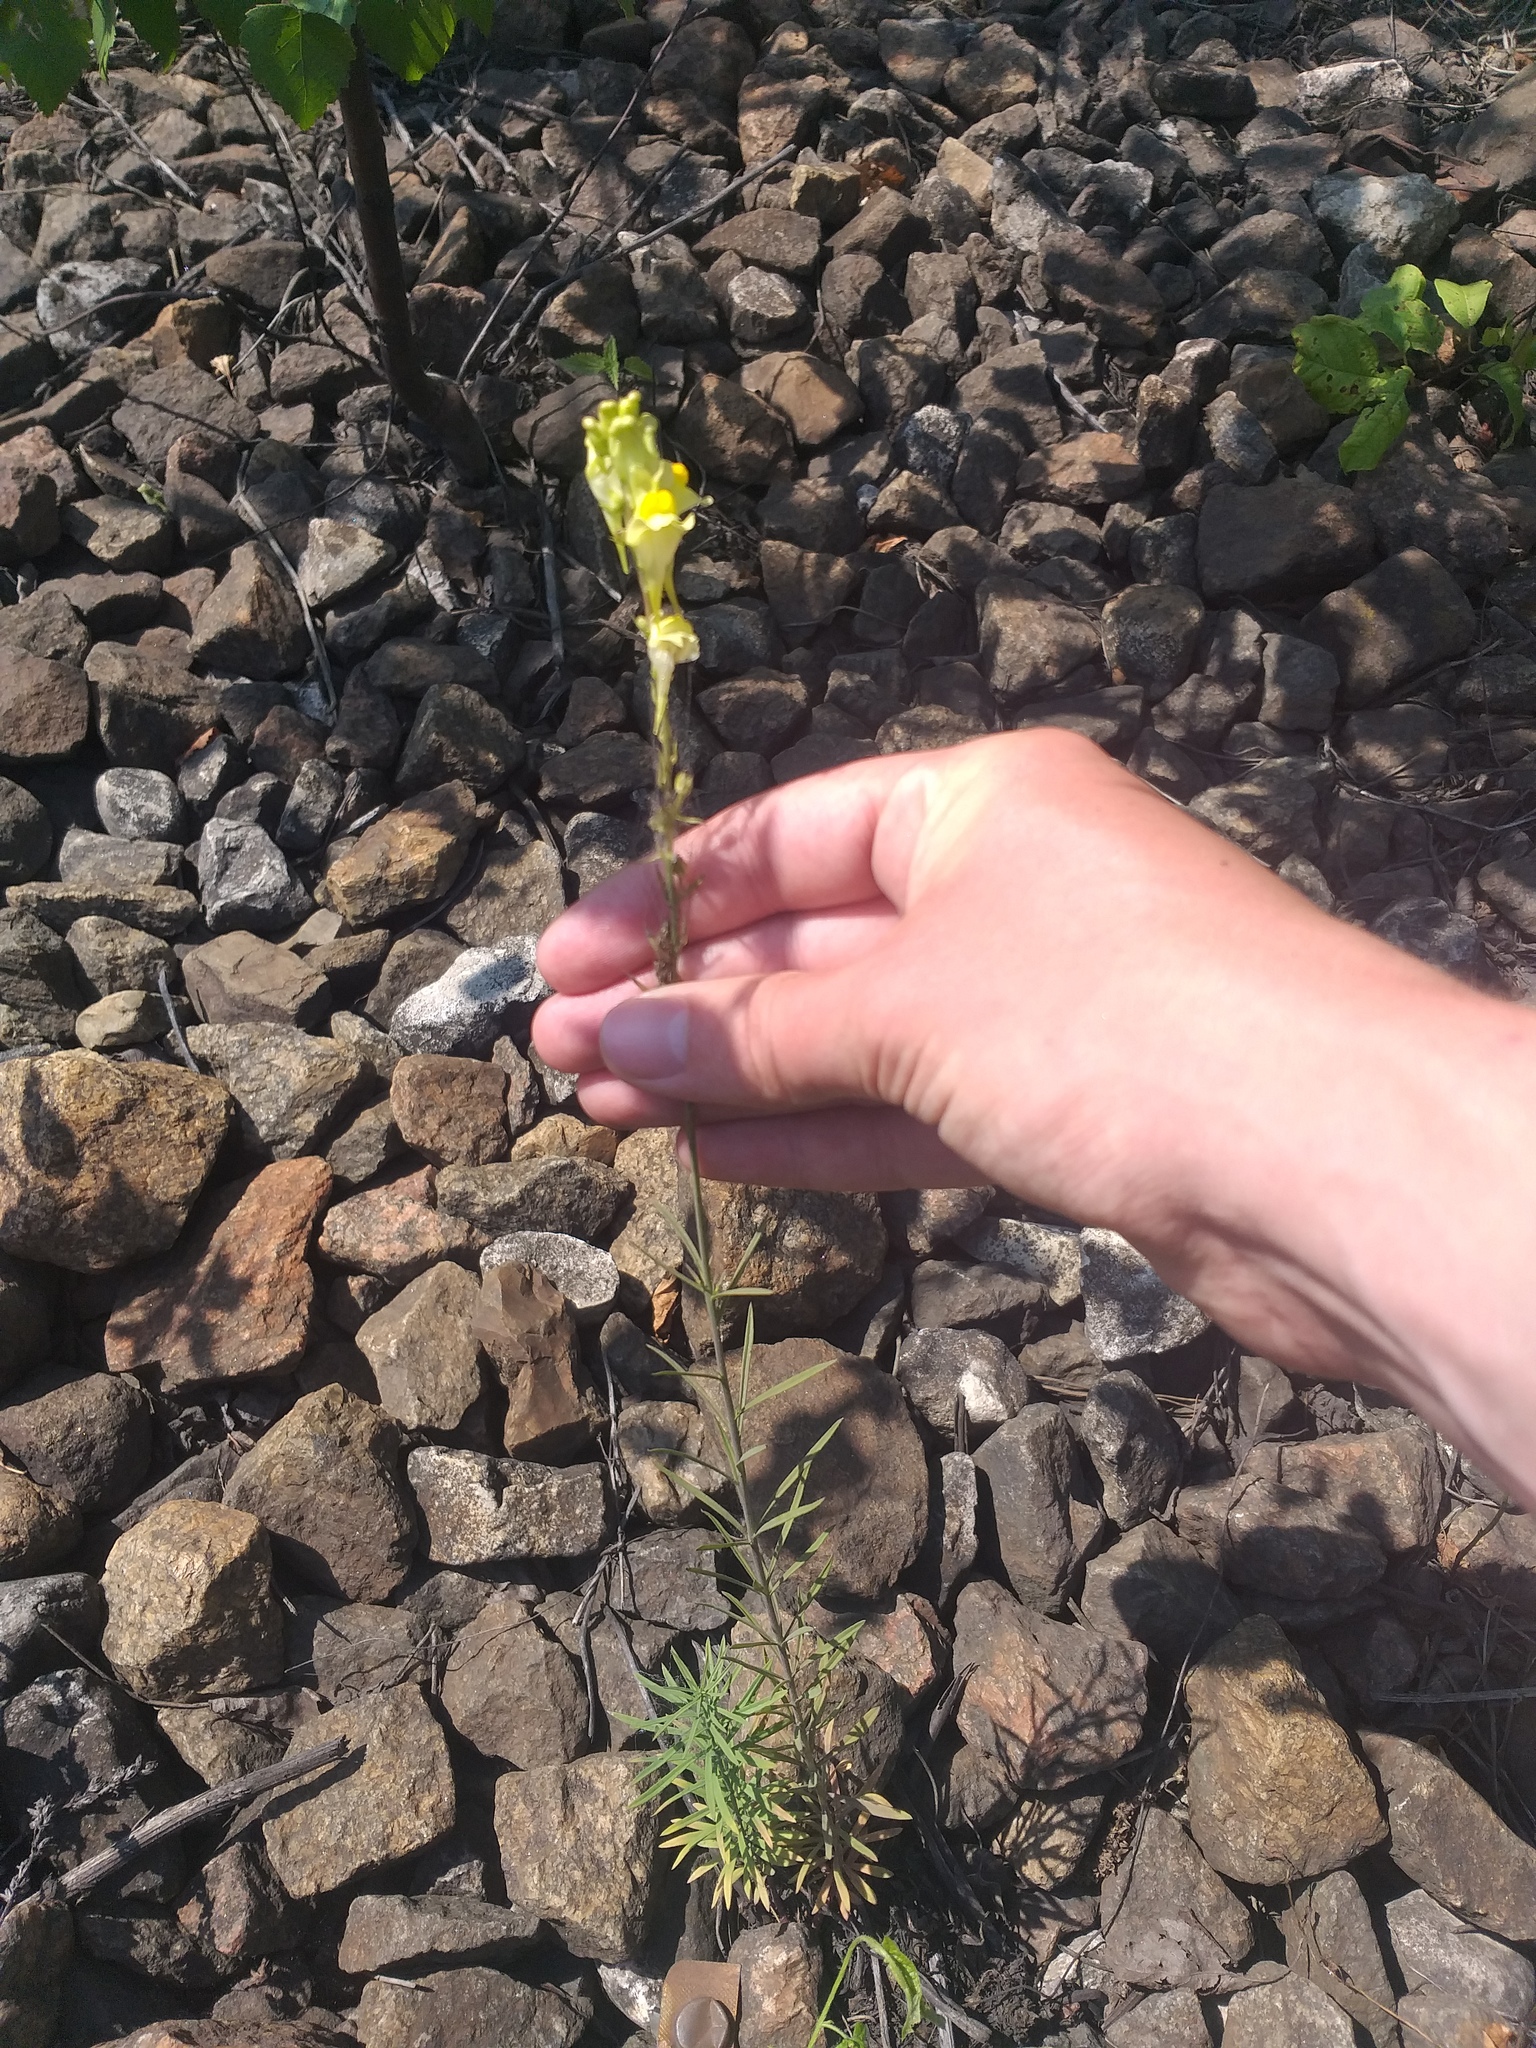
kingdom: Plantae
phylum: Tracheophyta
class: Magnoliopsida
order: Lamiales
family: Plantaginaceae
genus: Linaria
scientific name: Linaria vulgaris
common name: Butter and eggs
